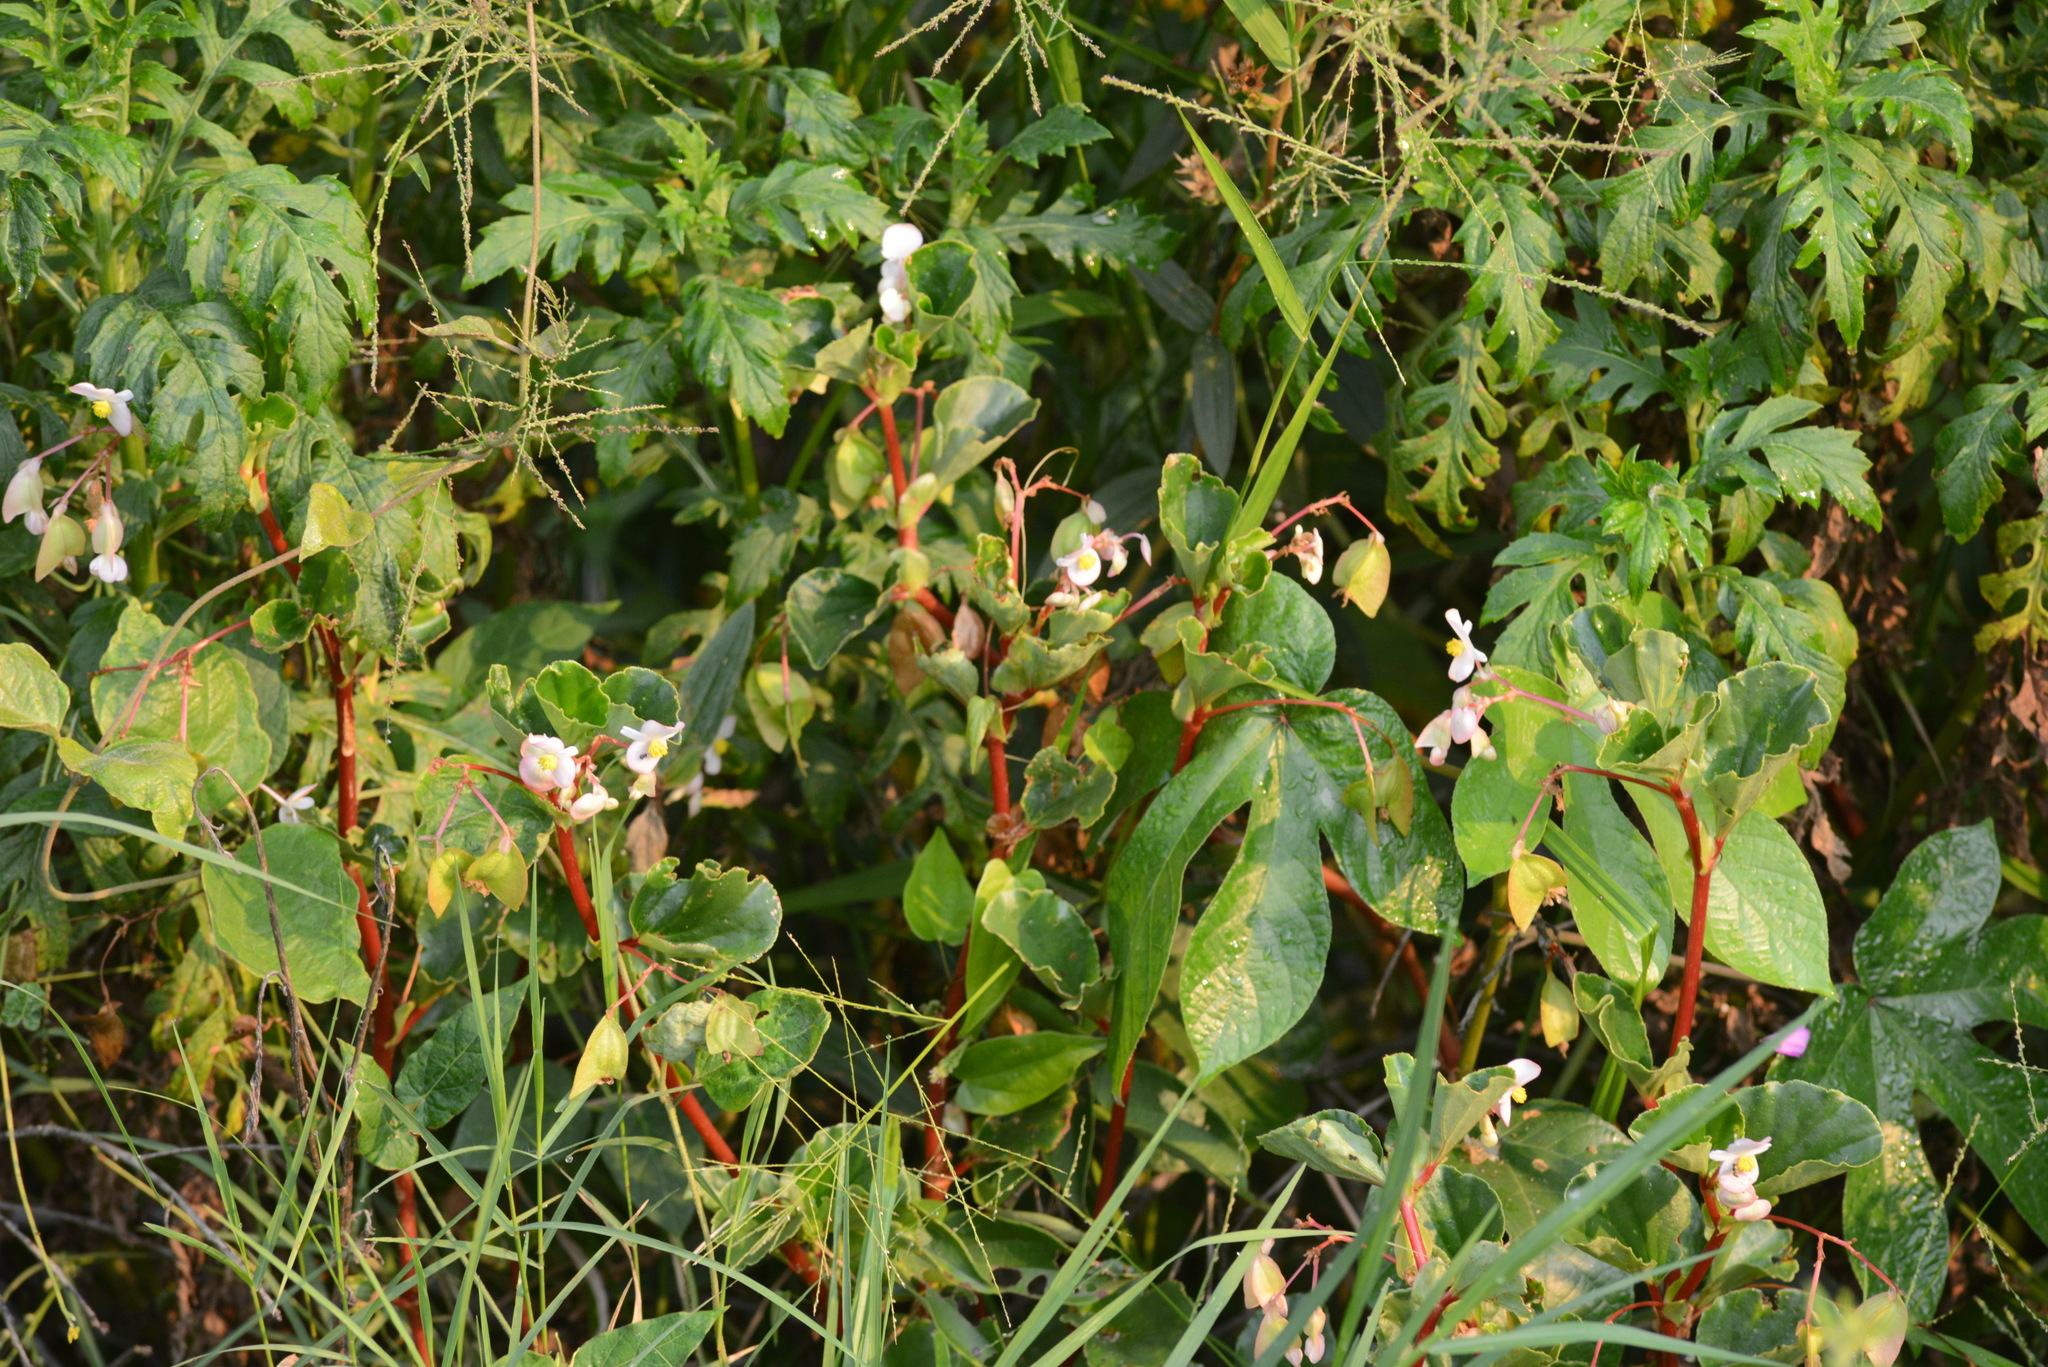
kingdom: Plantae
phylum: Tracheophyta
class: Magnoliopsida
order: Cucurbitales
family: Begoniaceae
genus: Begonia
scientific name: Begonia cucullata
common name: Clubbed begonia
